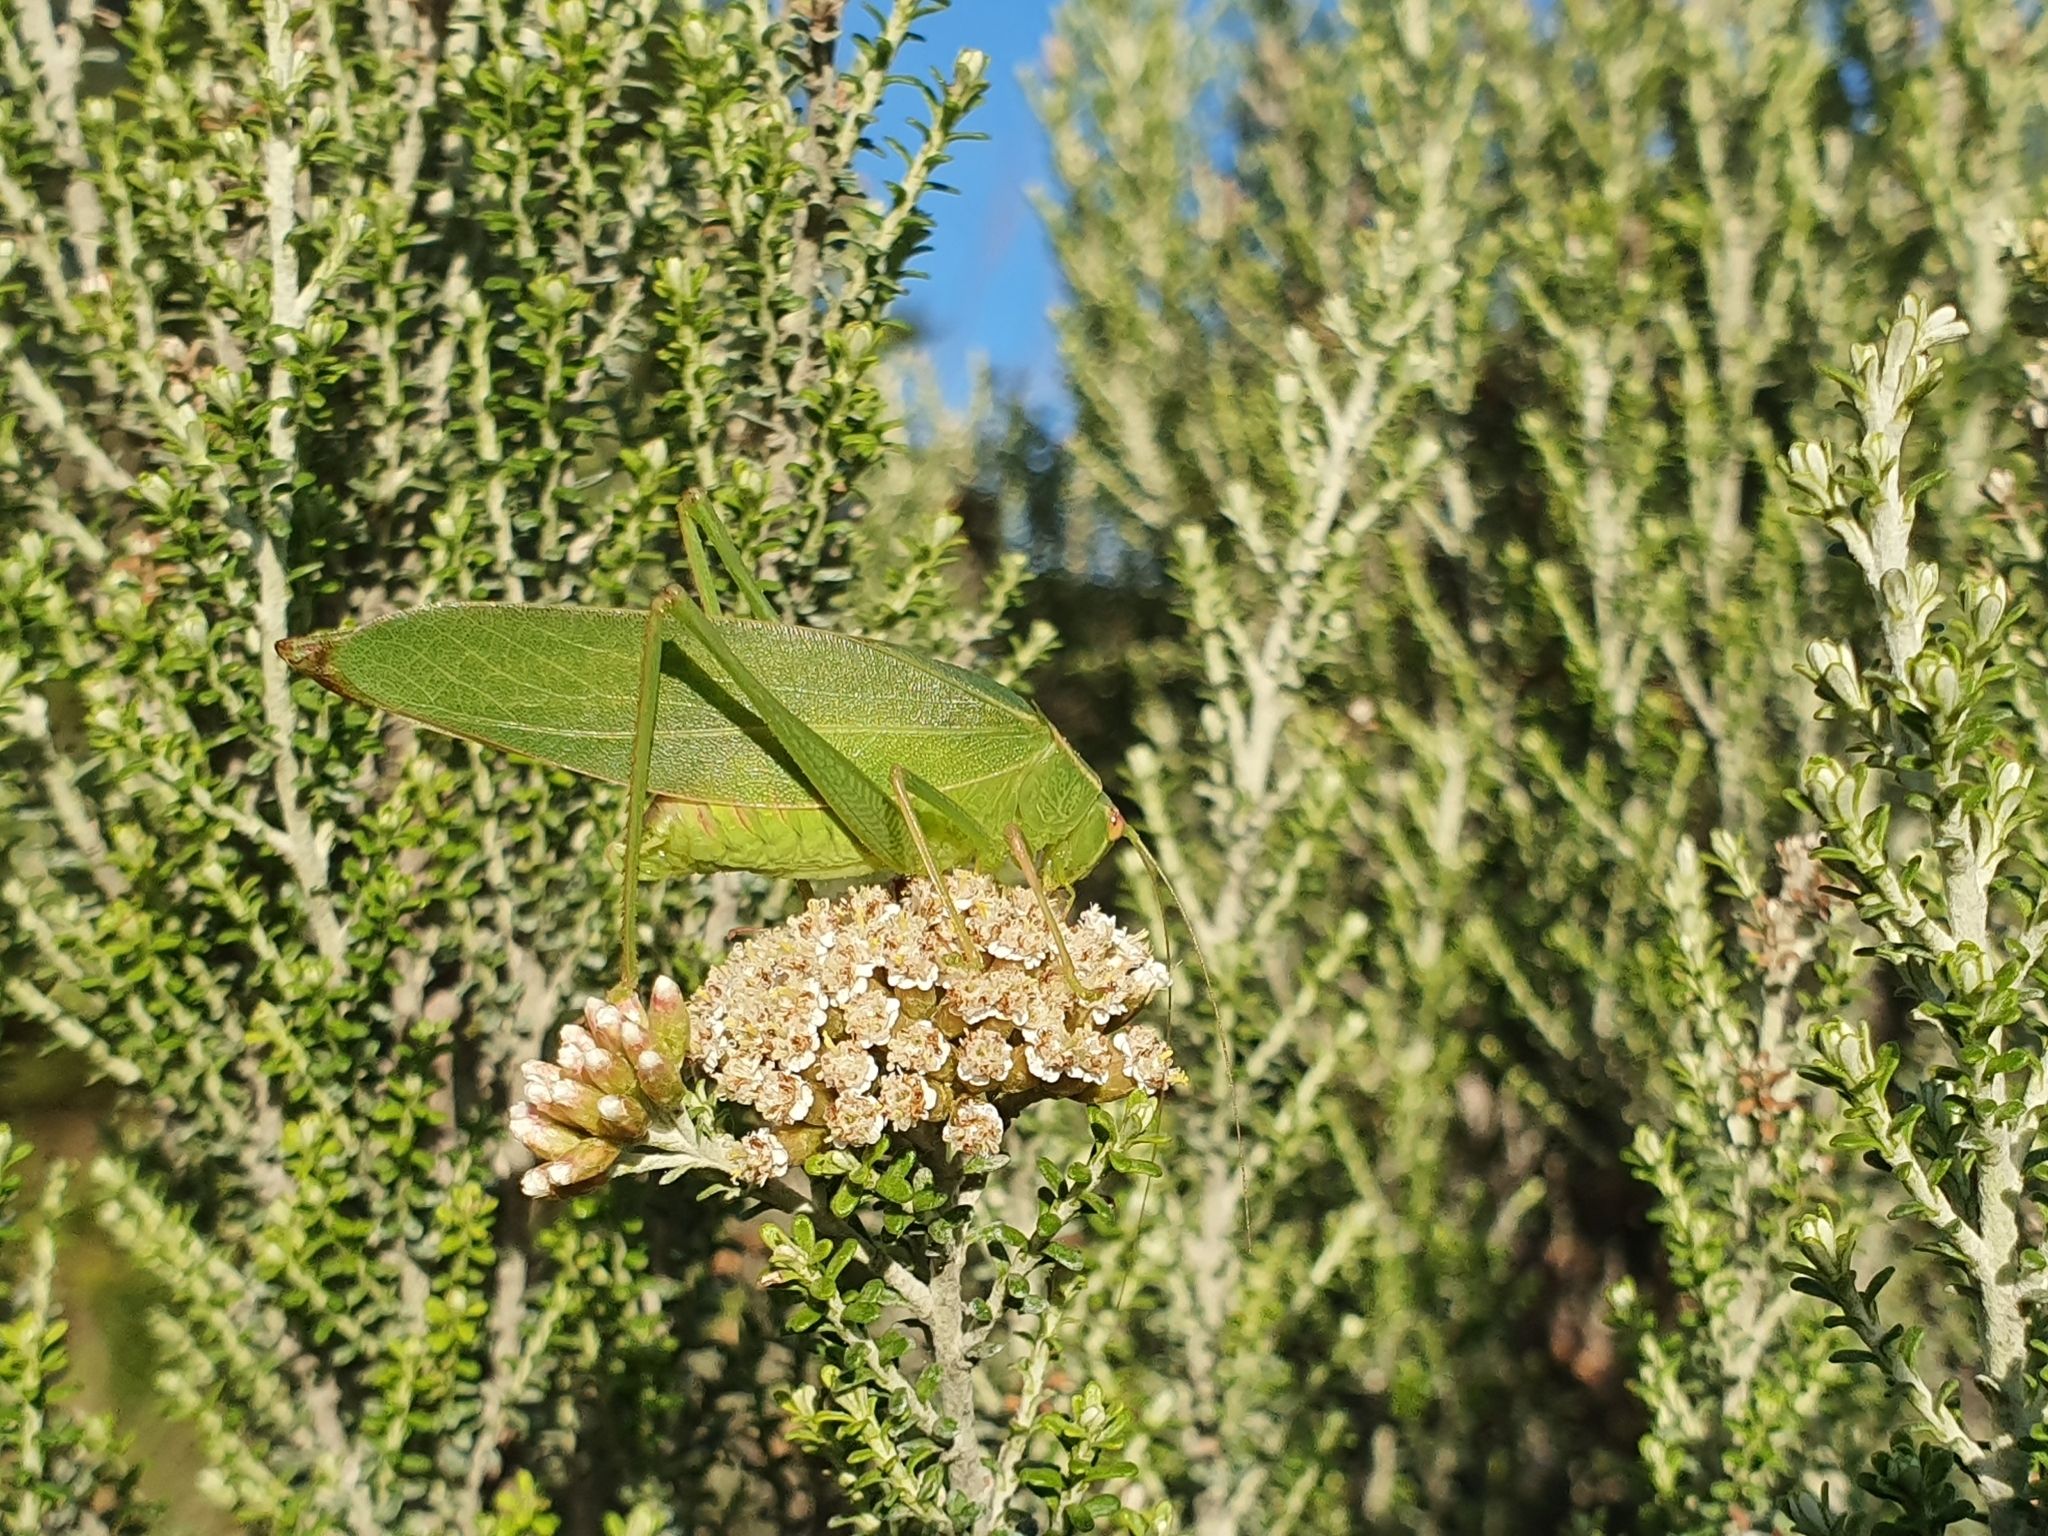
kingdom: Animalia
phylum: Arthropoda
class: Insecta
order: Orthoptera
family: Tettigoniidae
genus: Caedicia
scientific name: Caedicia simplex
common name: Common garden katydid
